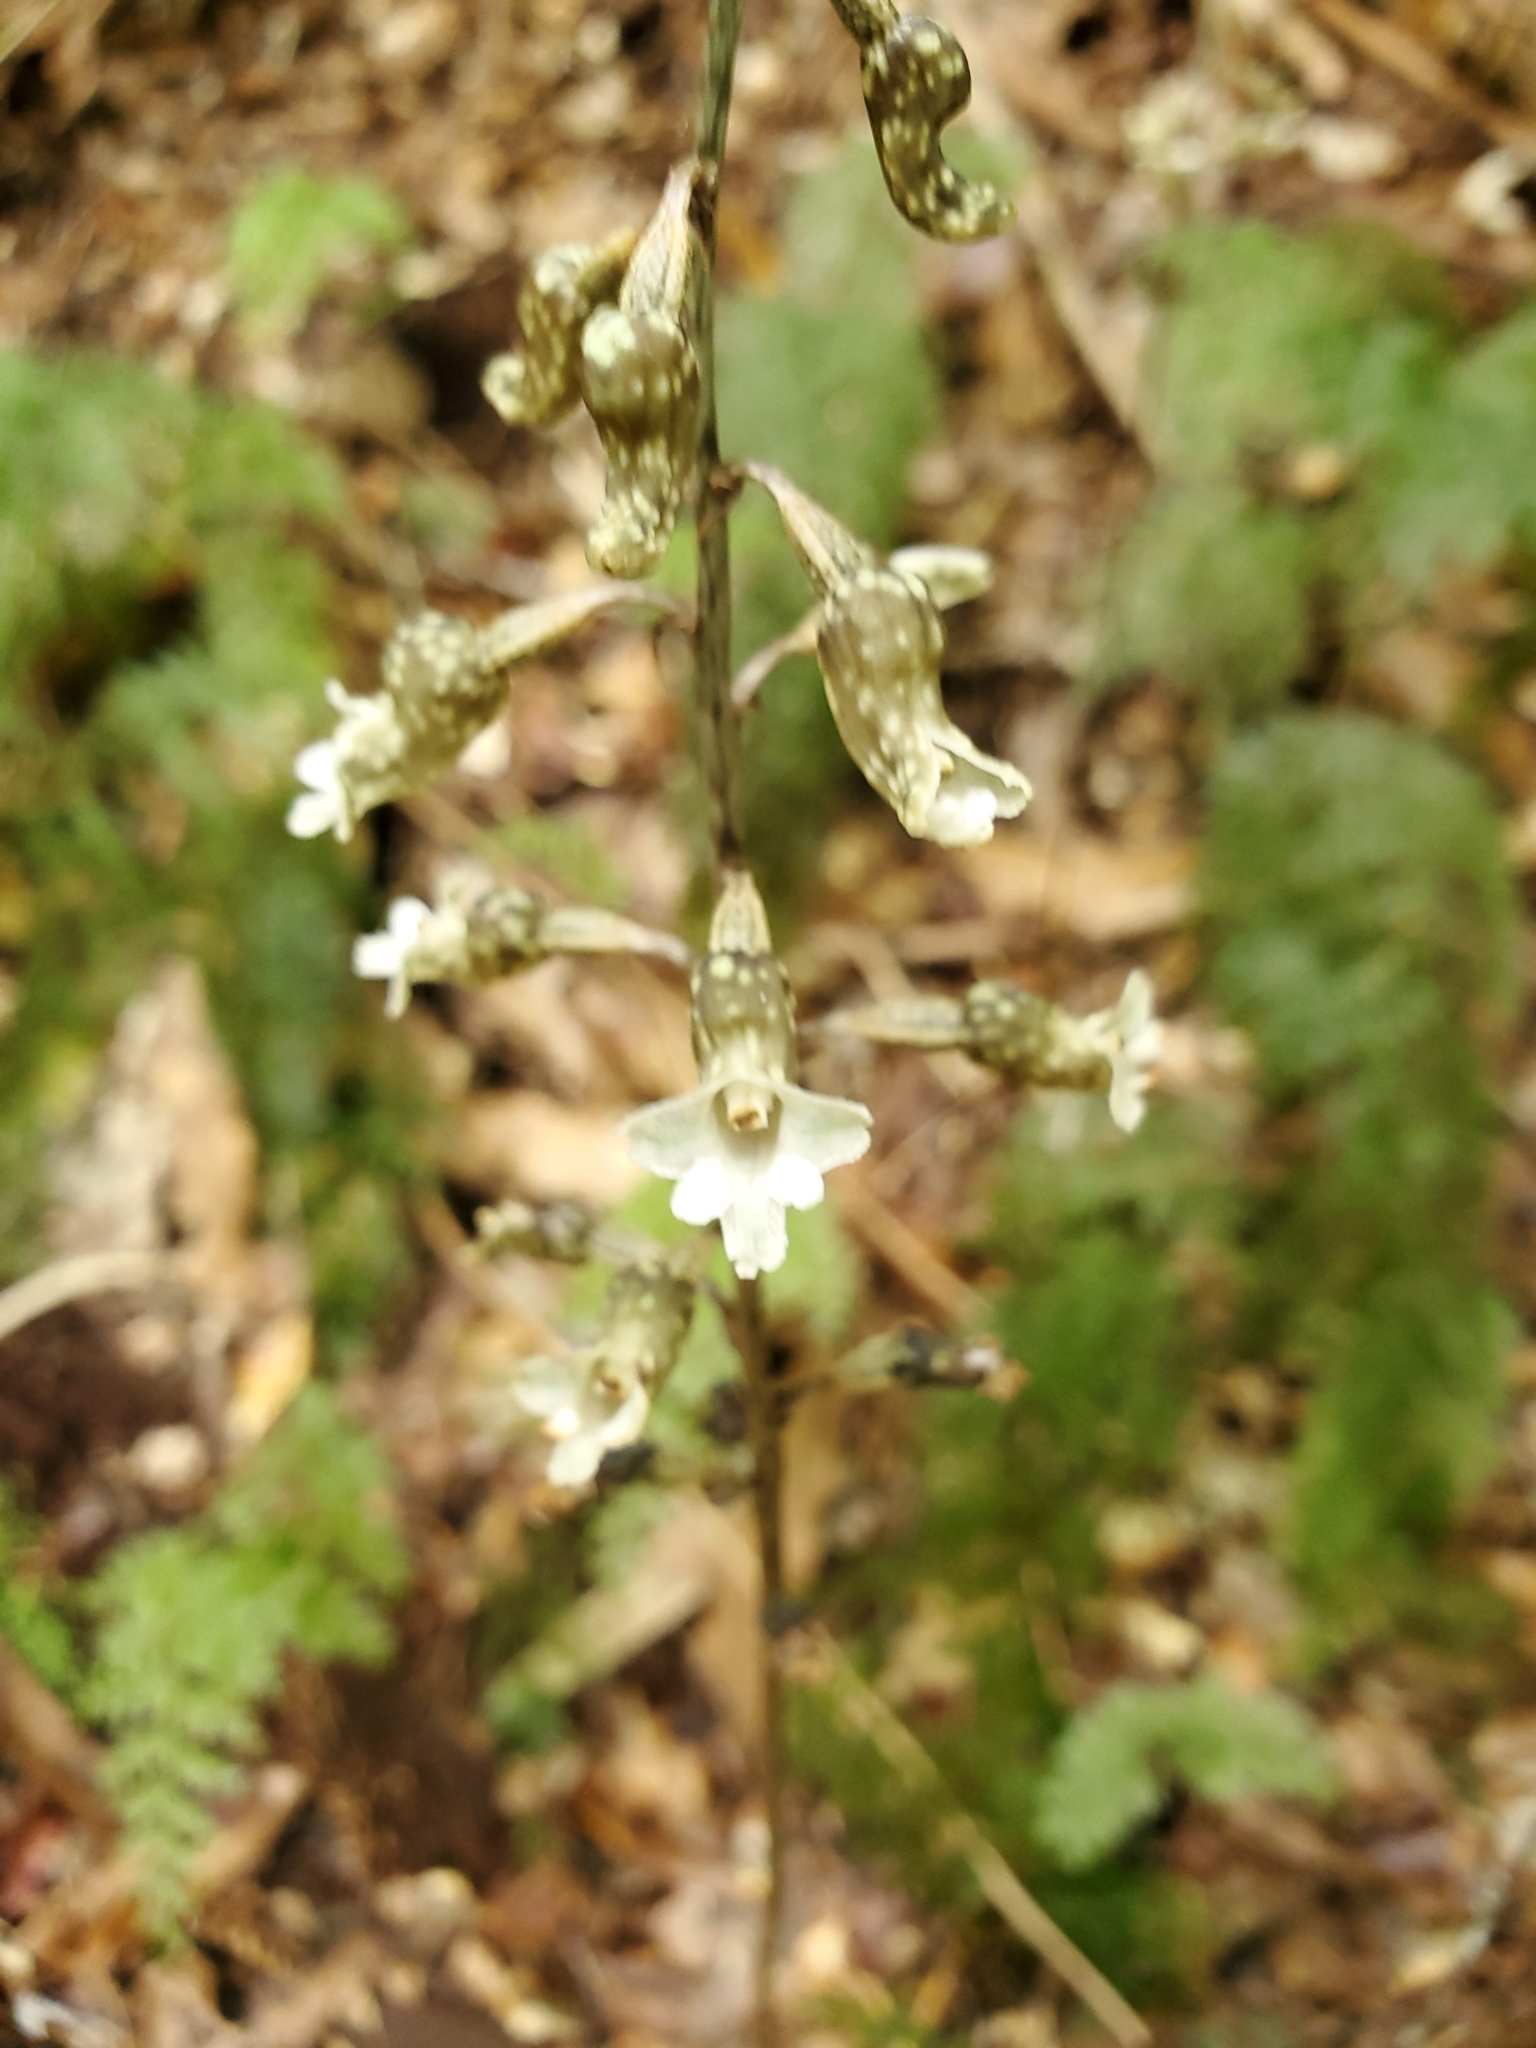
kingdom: Plantae
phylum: Tracheophyta
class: Liliopsida
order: Asparagales
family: Orchidaceae
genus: Gastrodia
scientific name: Gastrodia cunninghamii
